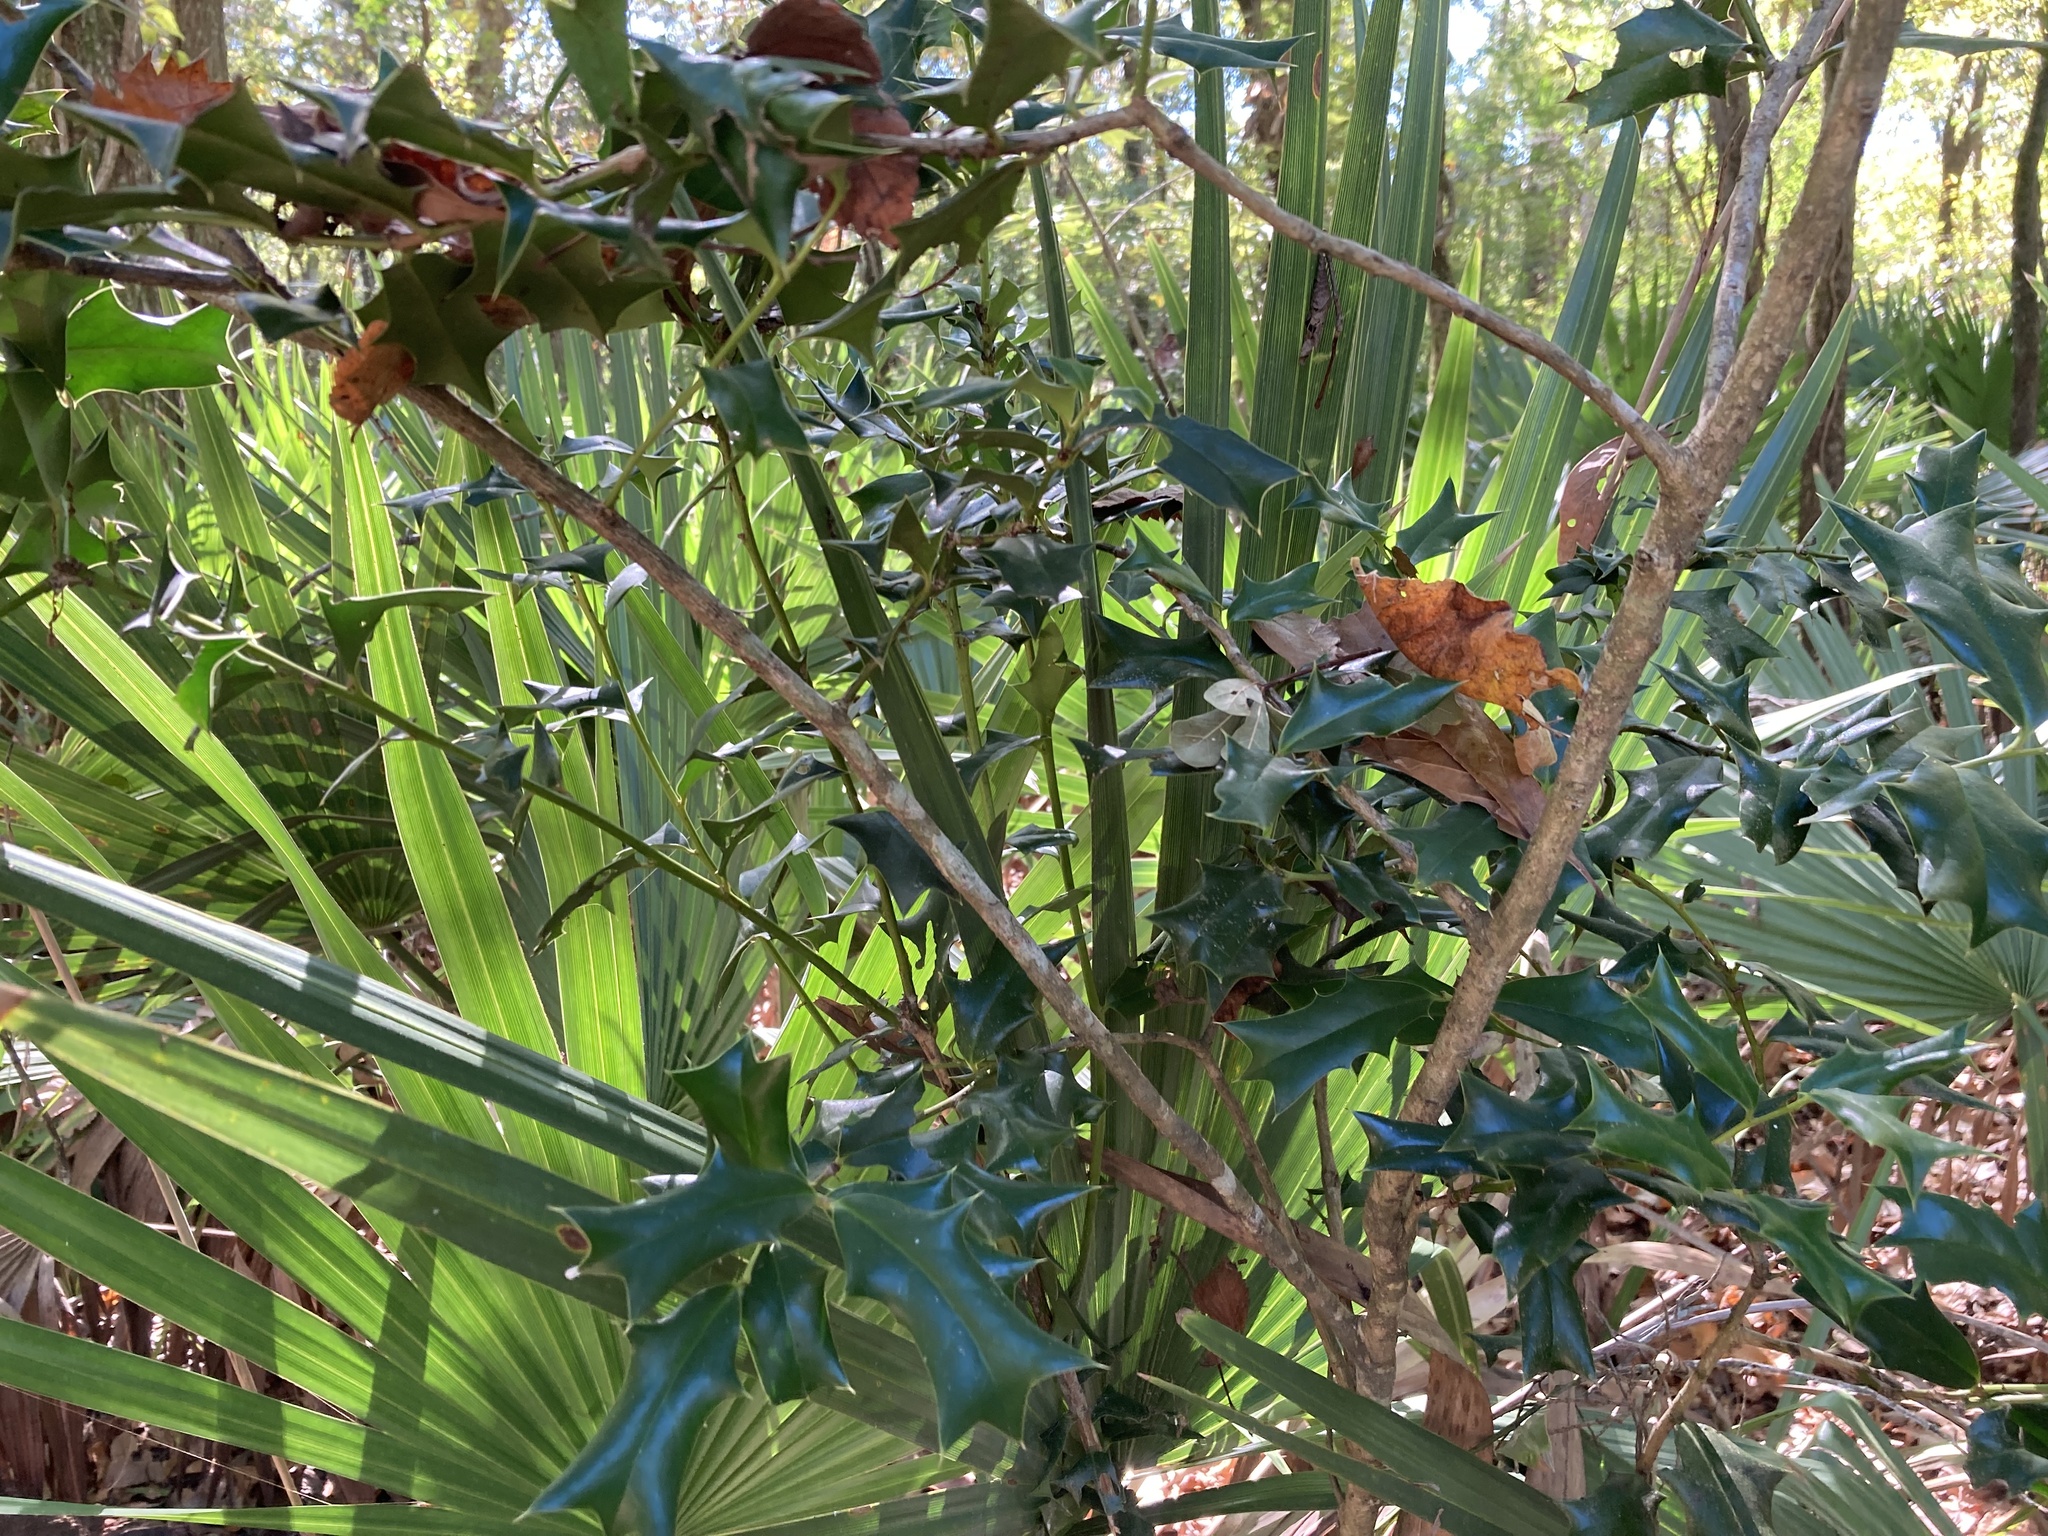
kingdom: Plantae
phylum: Tracheophyta
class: Magnoliopsida
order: Aquifoliales
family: Aquifoliaceae
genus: Ilex
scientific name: Ilex cornuta
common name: Chinese holly
